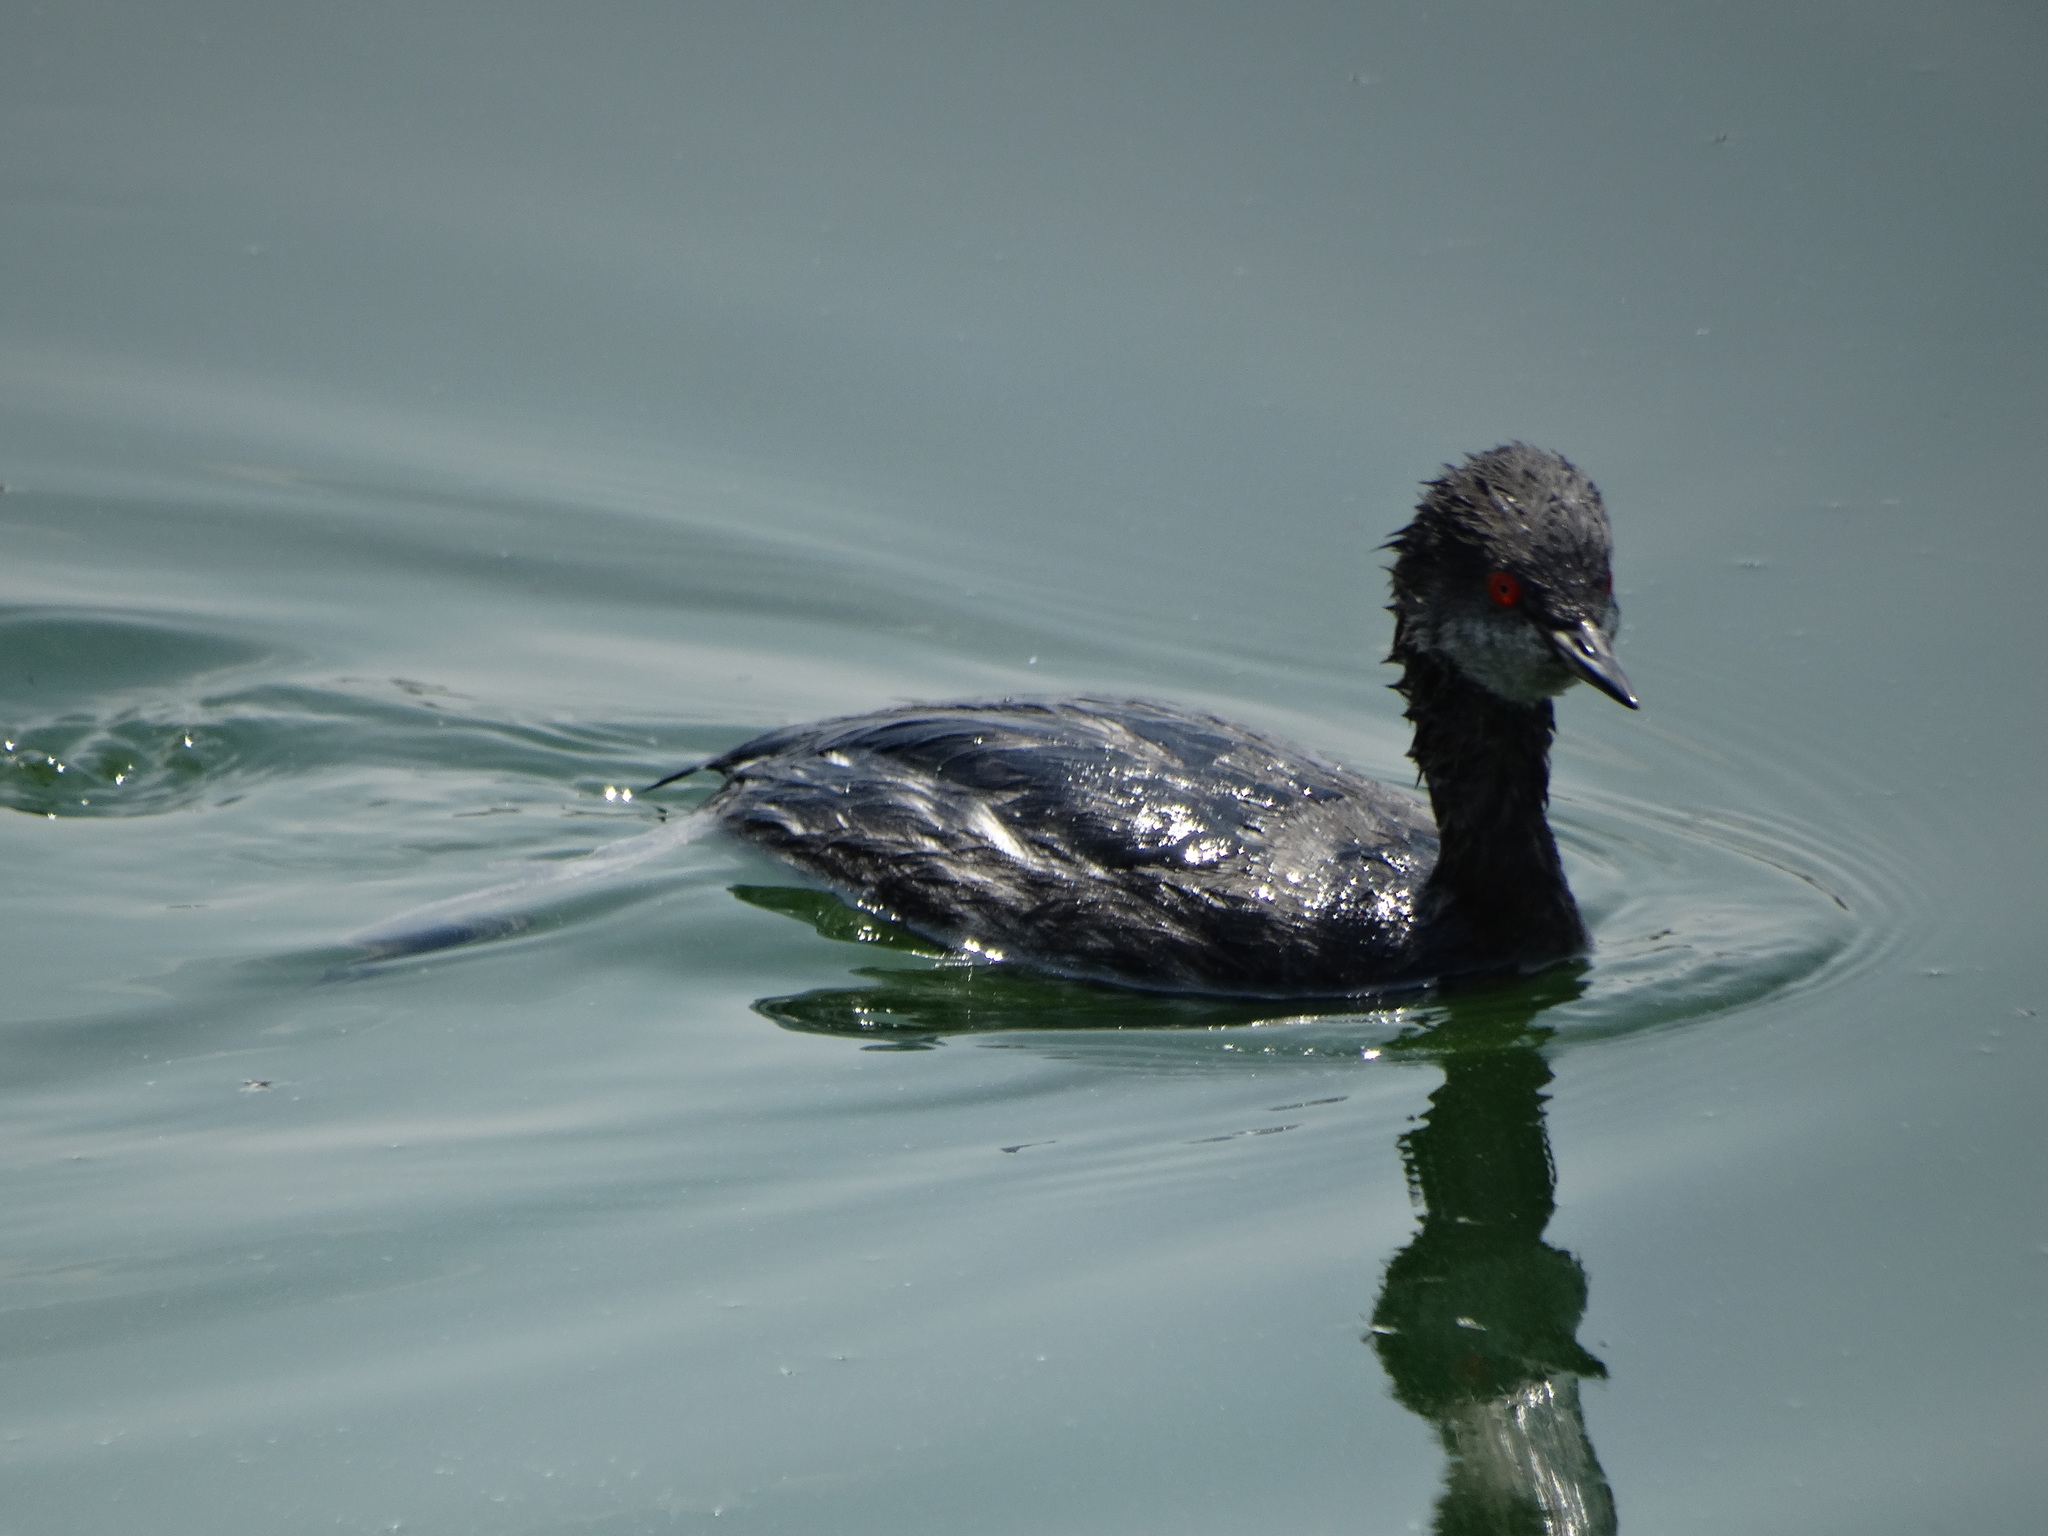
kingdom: Animalia
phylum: Chordata
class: Aves
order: Podicipediformes
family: Podicipedidae
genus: Podiceps
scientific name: Podiceps nigricollis
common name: Black-necked grebe
